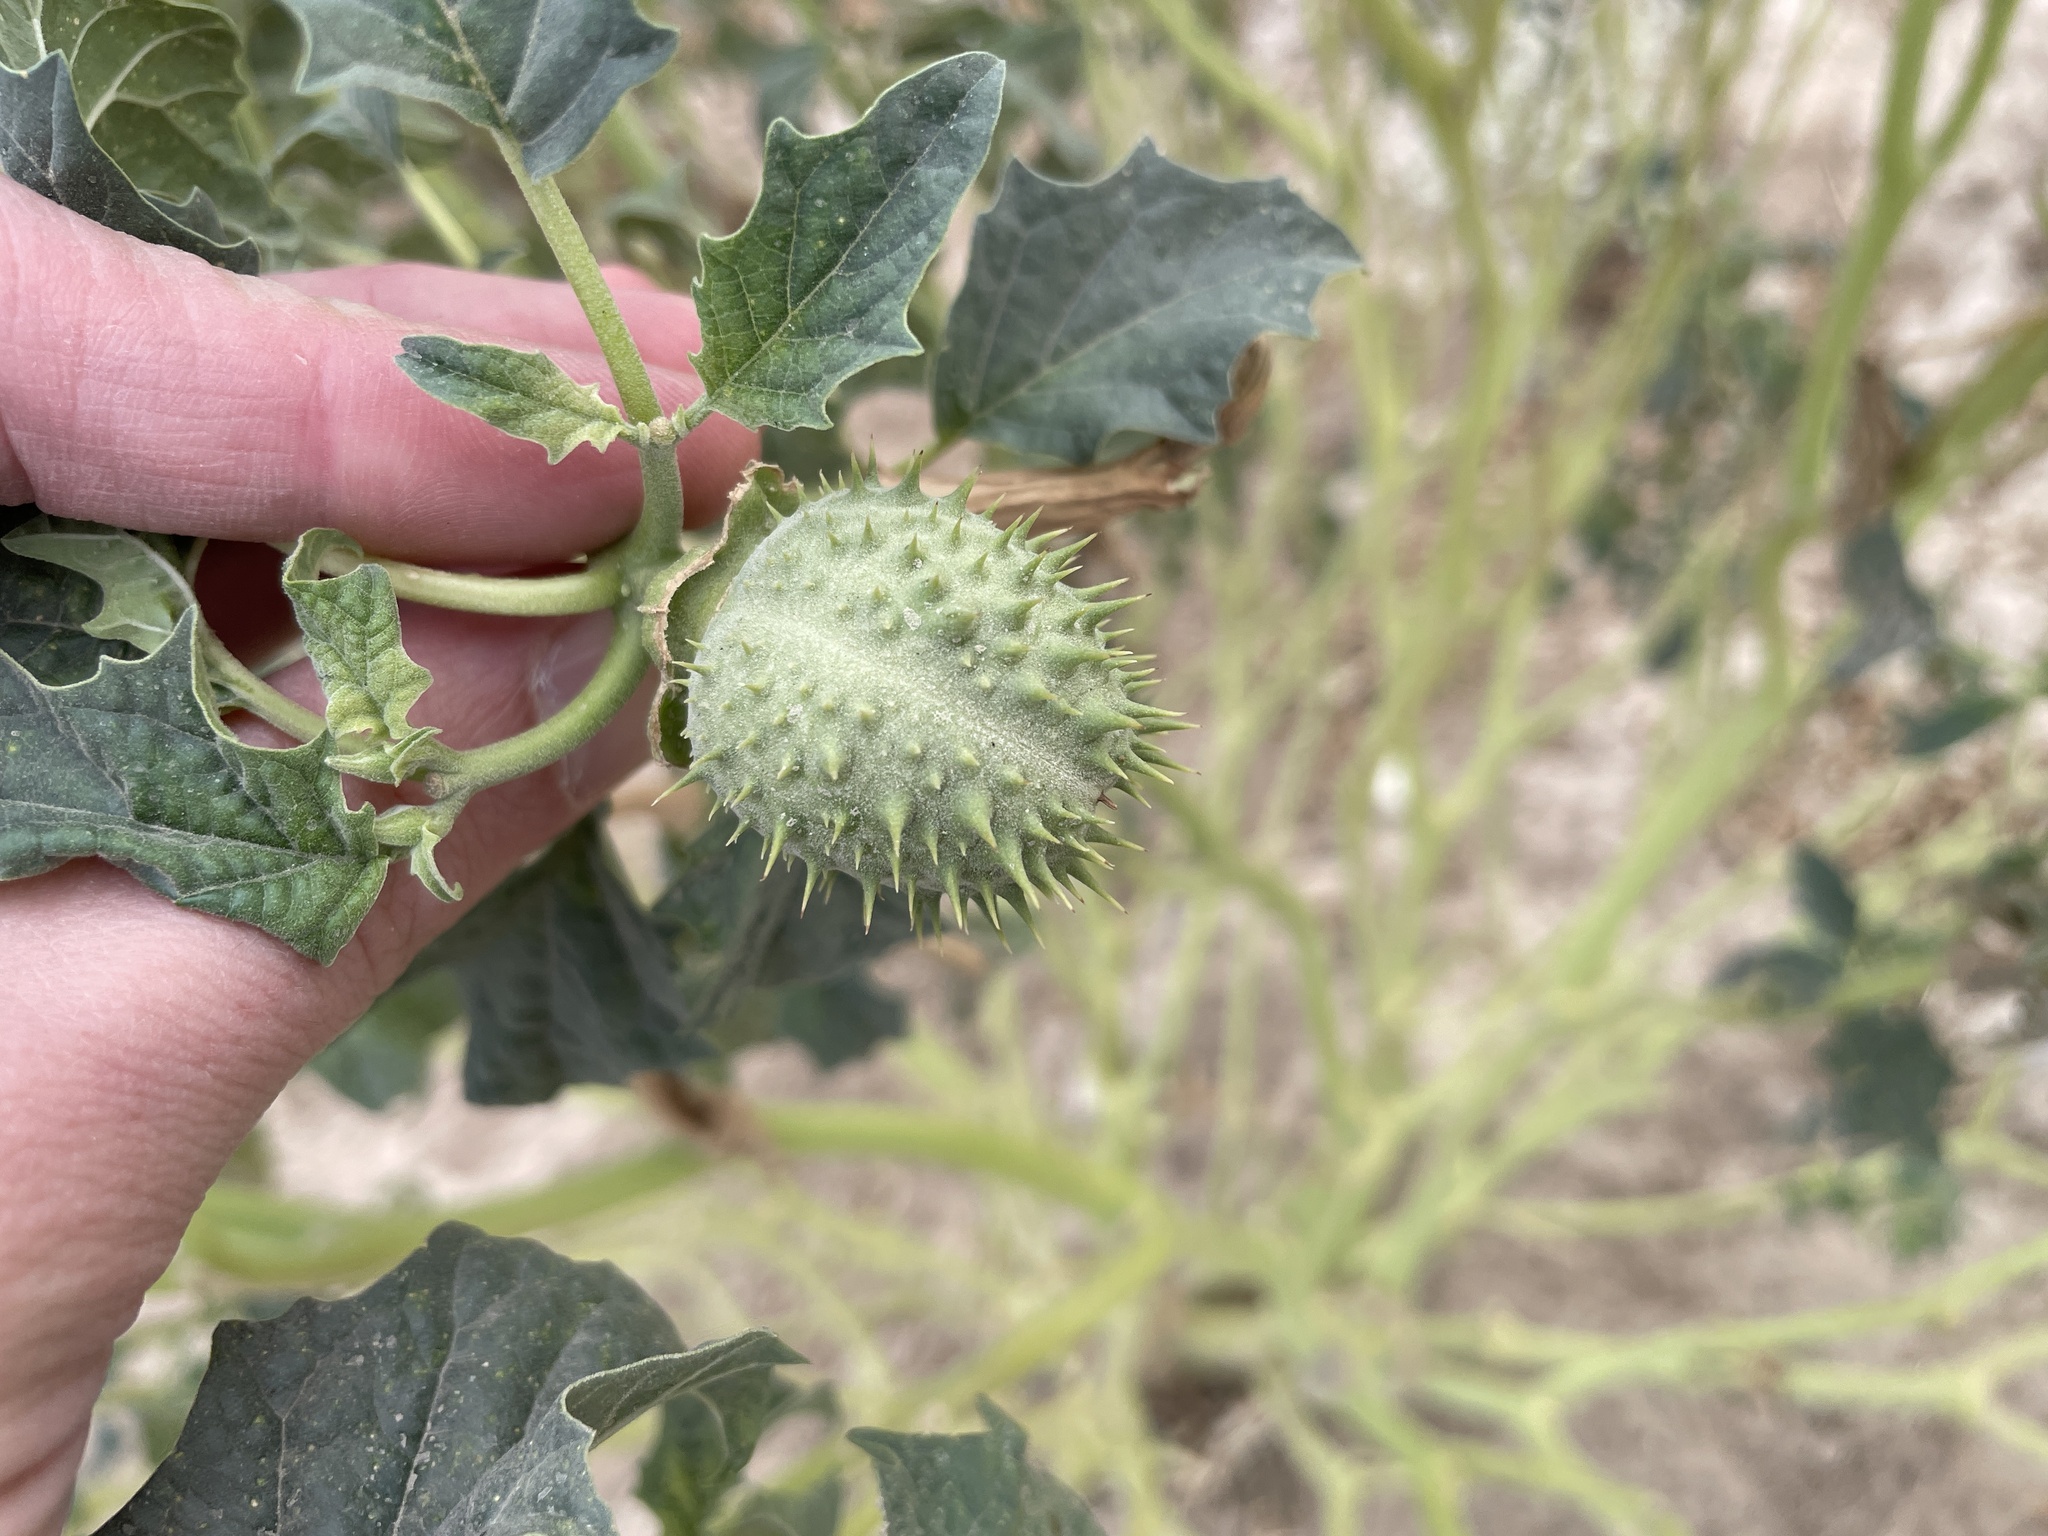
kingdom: Plantae
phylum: Tracheophyta
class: Magnoliopsida
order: Solanales
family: Solanaceae
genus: Datura
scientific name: Datura stramonium
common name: Thorn-apple
